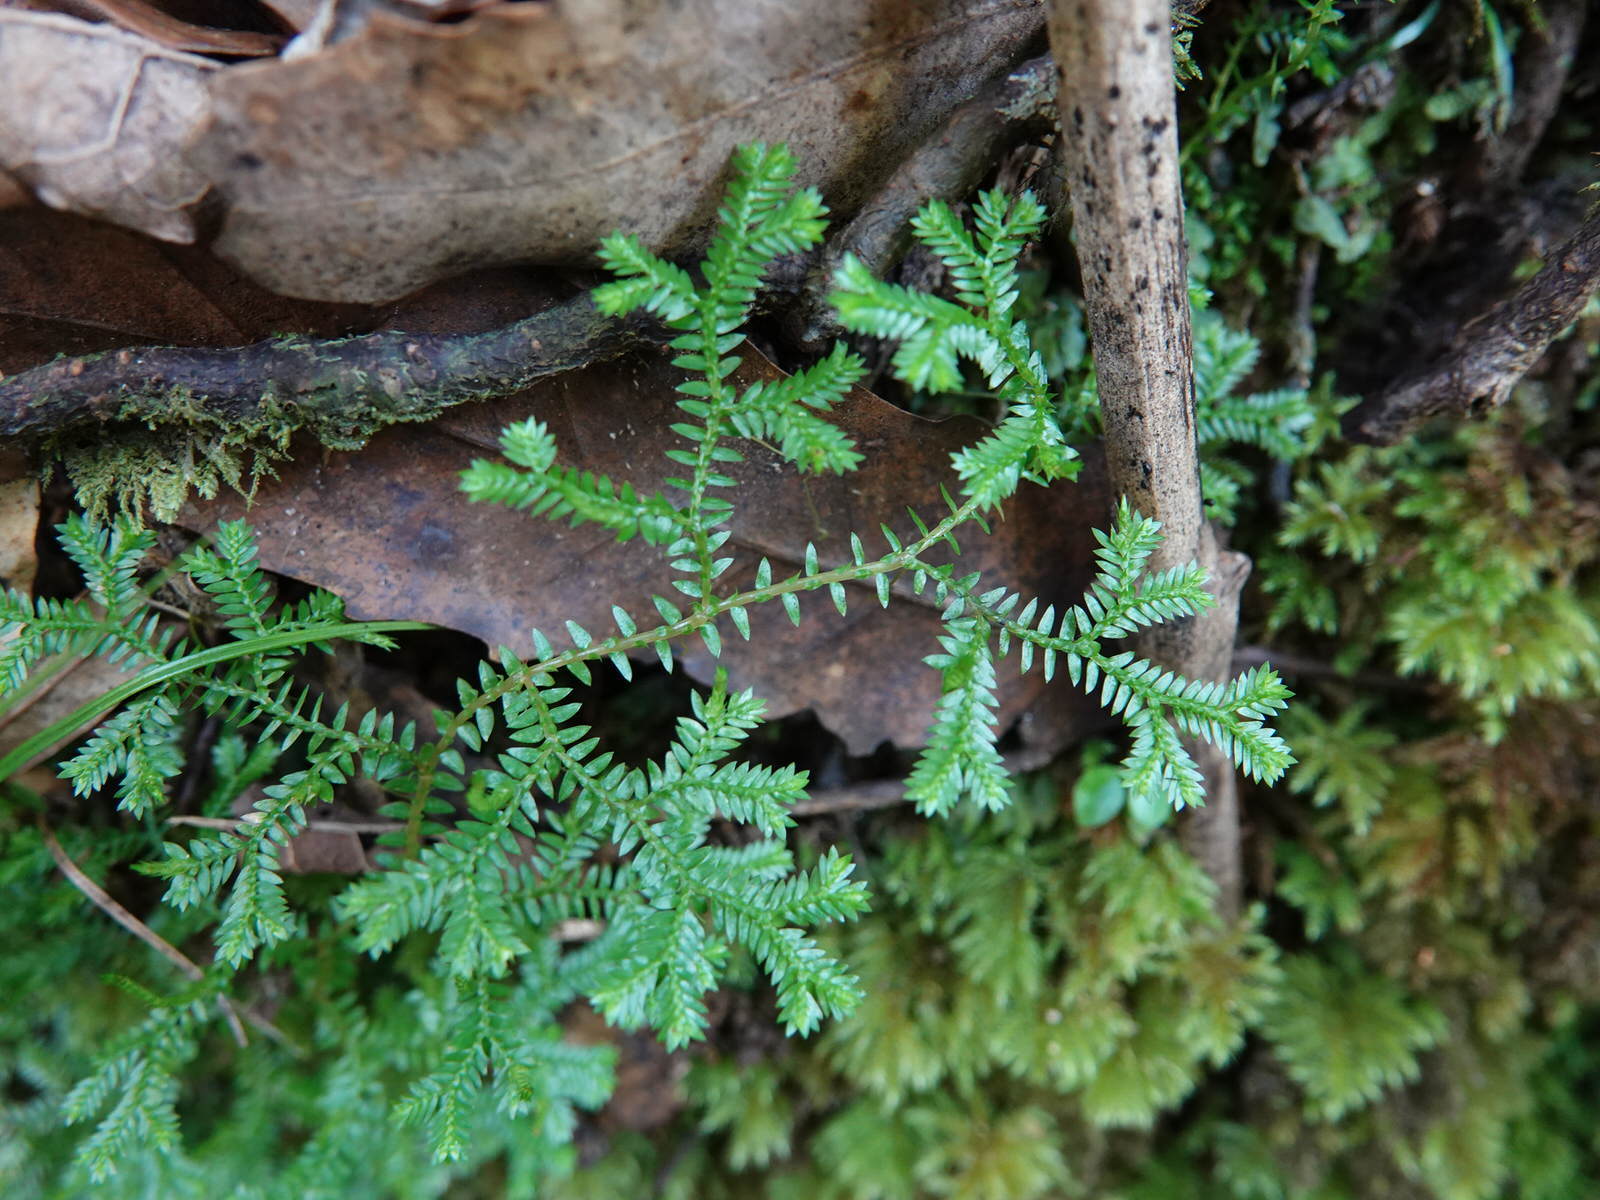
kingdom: Plantae
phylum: Tracheophyta
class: Lycopodiopsida
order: Selaginellales
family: Selaginellaceae
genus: Selaginella
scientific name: Selaginella kraussiana
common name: Krauss' spikemoss
